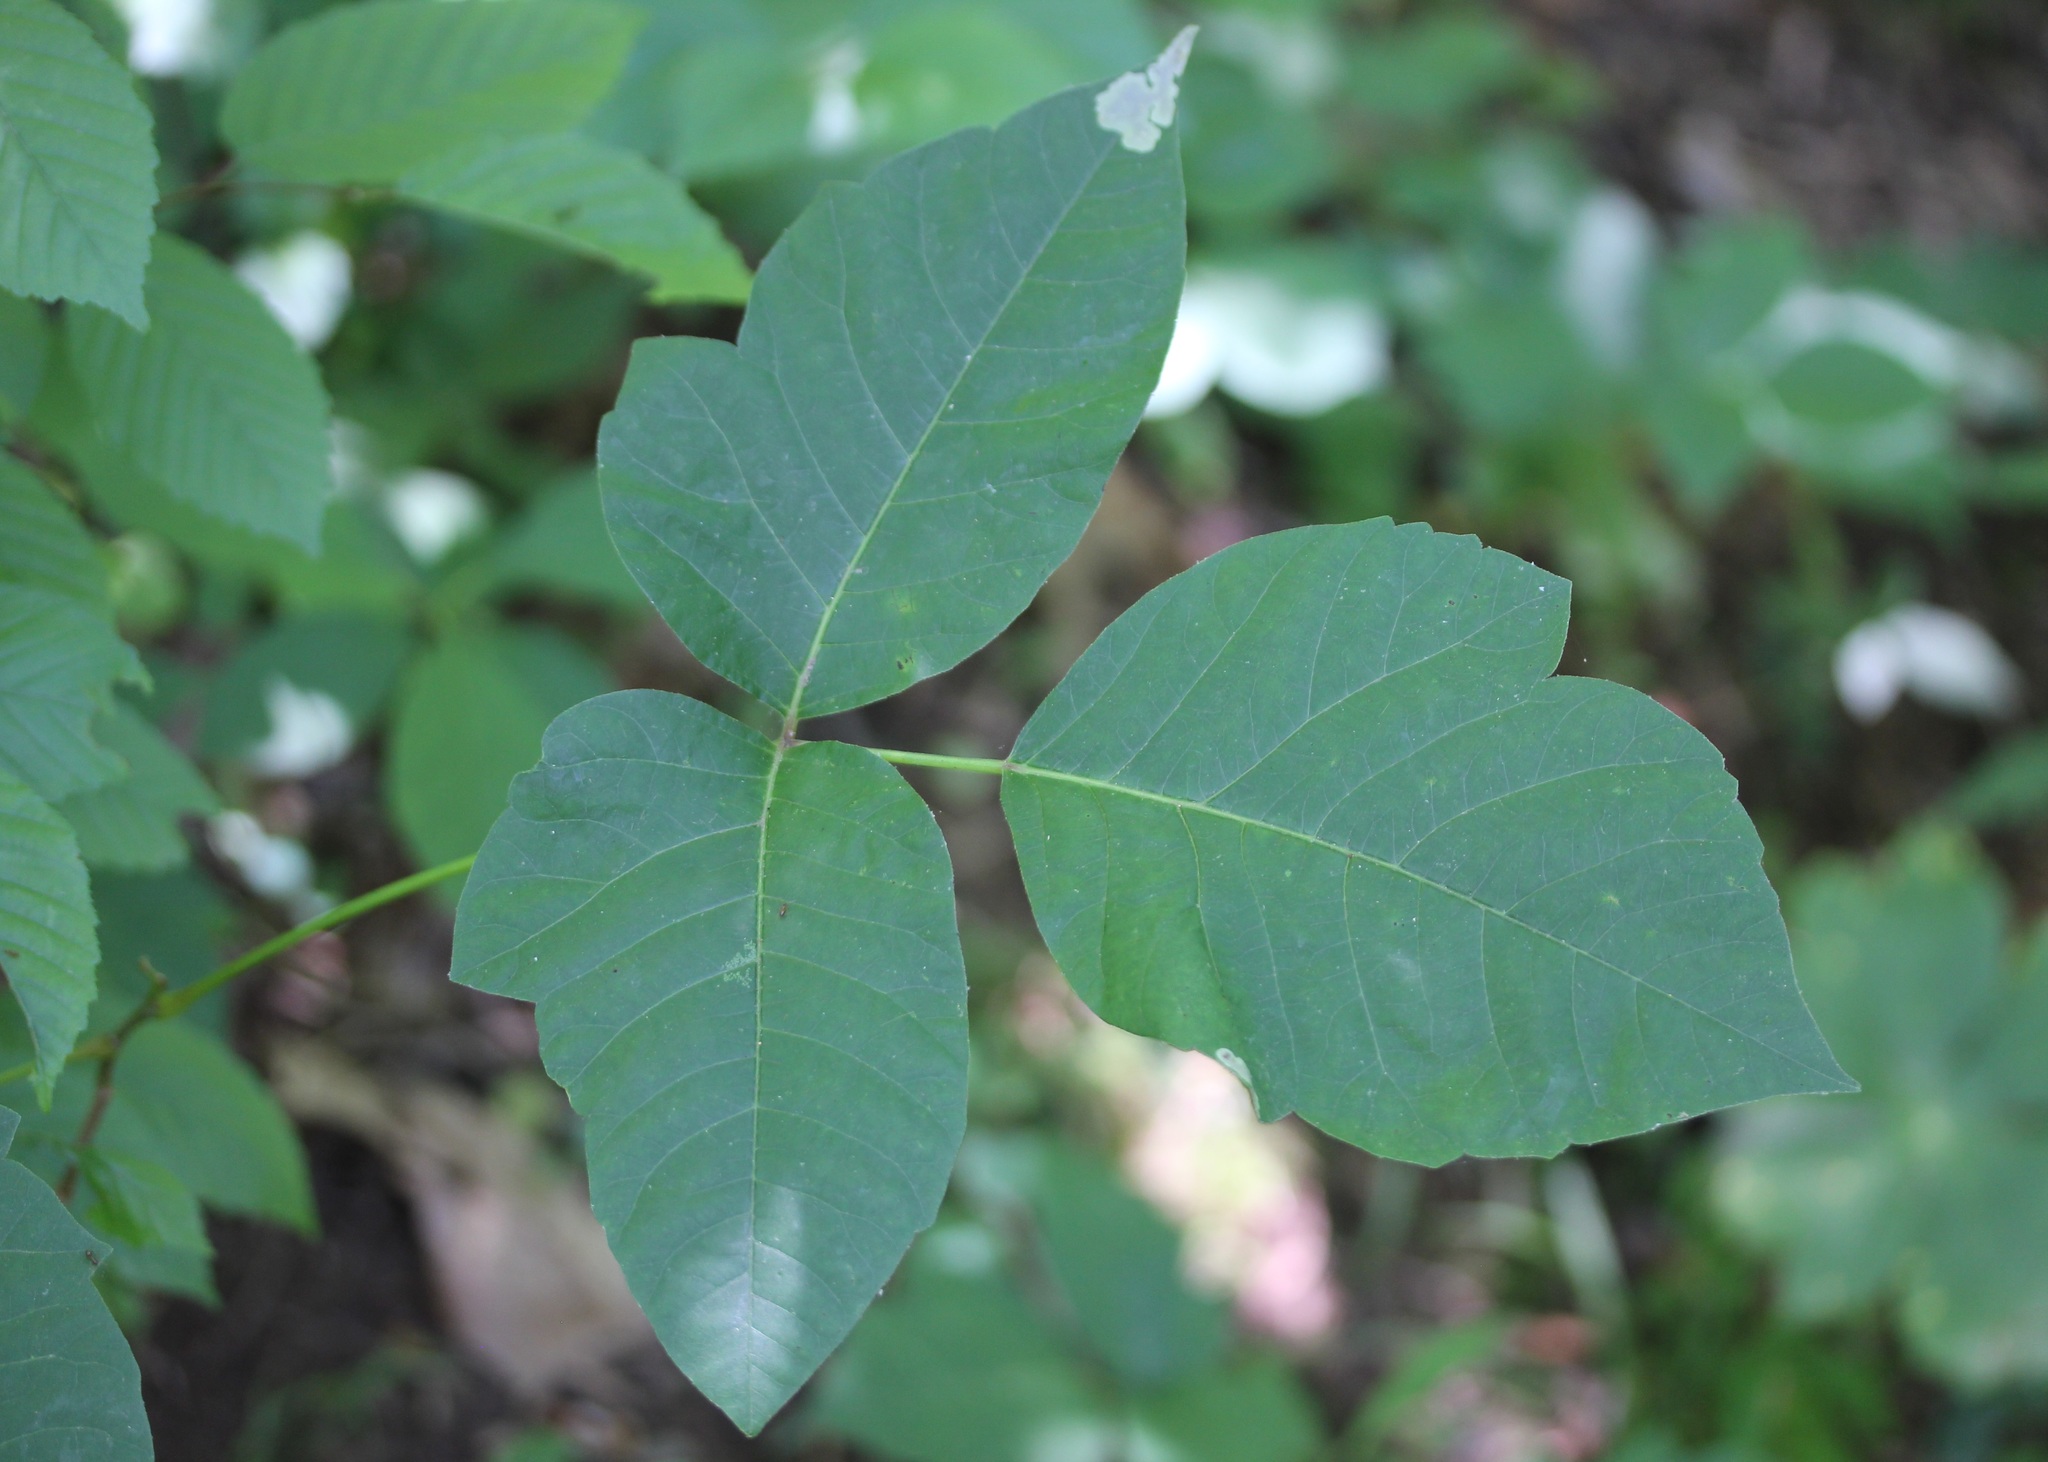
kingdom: Plantae
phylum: Tracheophyta
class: Magnoliopsida
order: Sapindales
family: Anacardiaceae
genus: Toxicodendron
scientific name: Toxicodendron radicans
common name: Poison ivy
